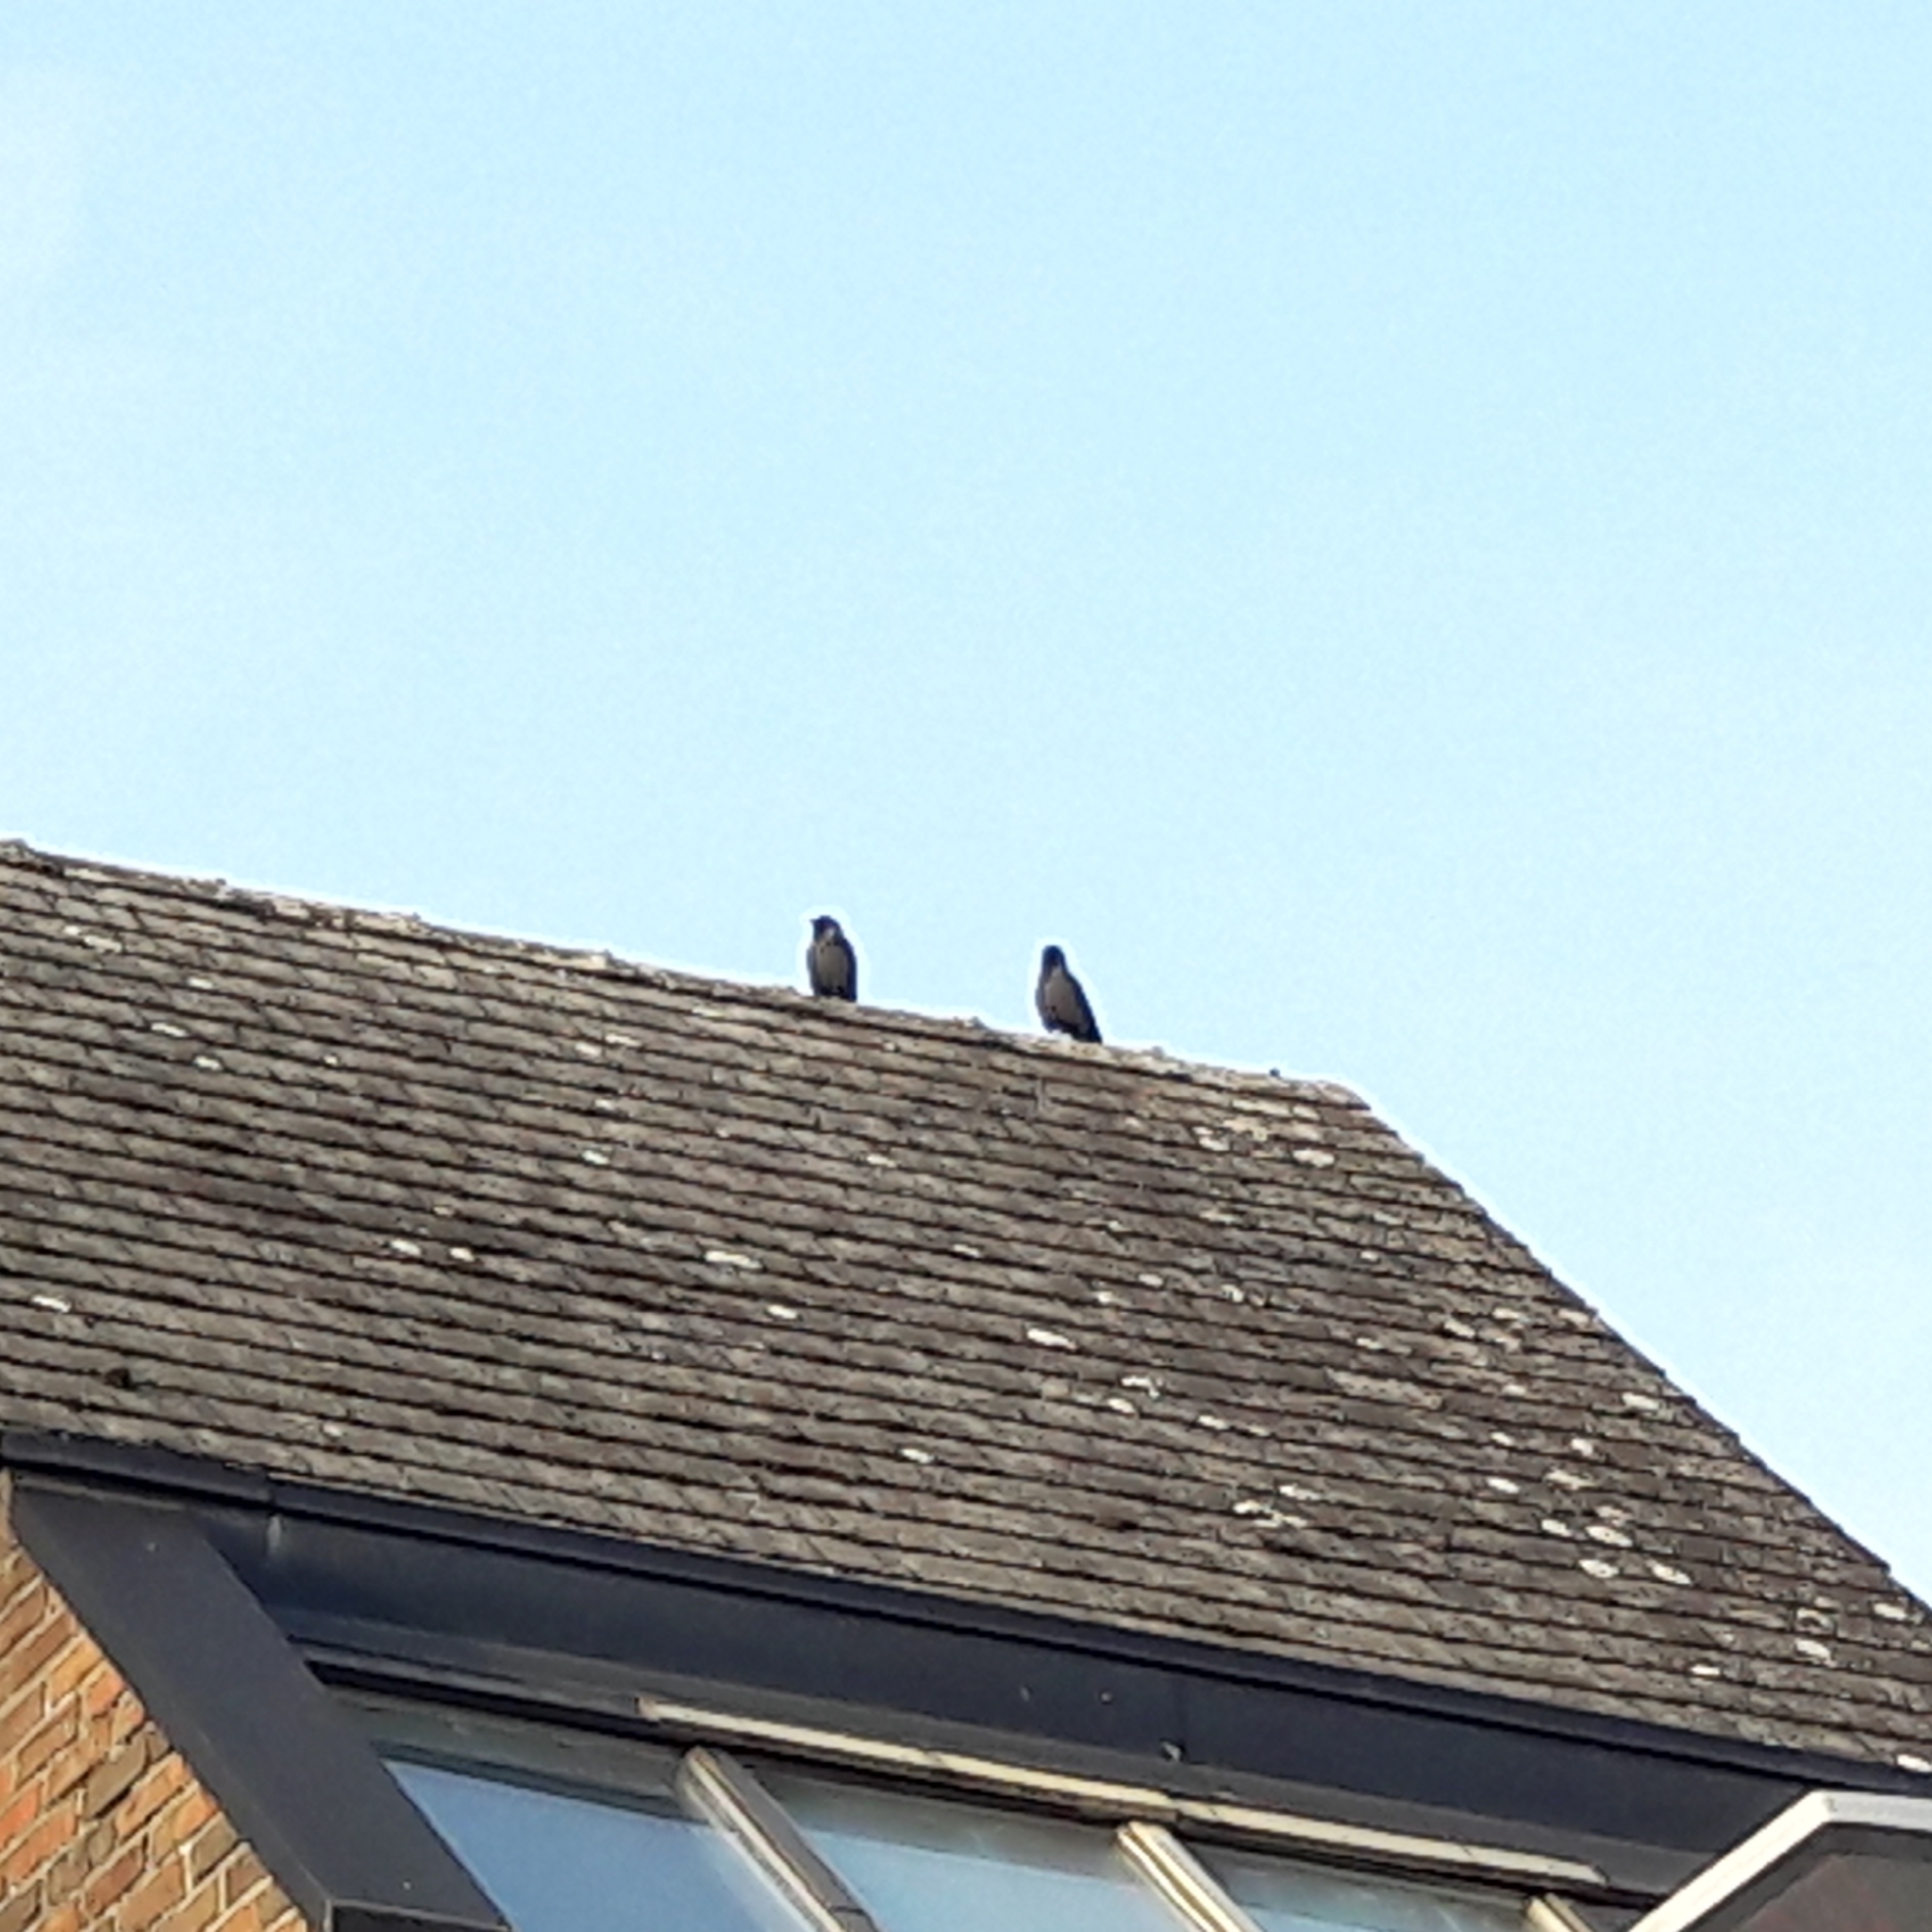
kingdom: Animalia
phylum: Chordata
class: Aves
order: Passeriformes
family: Corvidae
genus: Coloeus
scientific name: Coloeus monedula
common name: Western jackdaw
